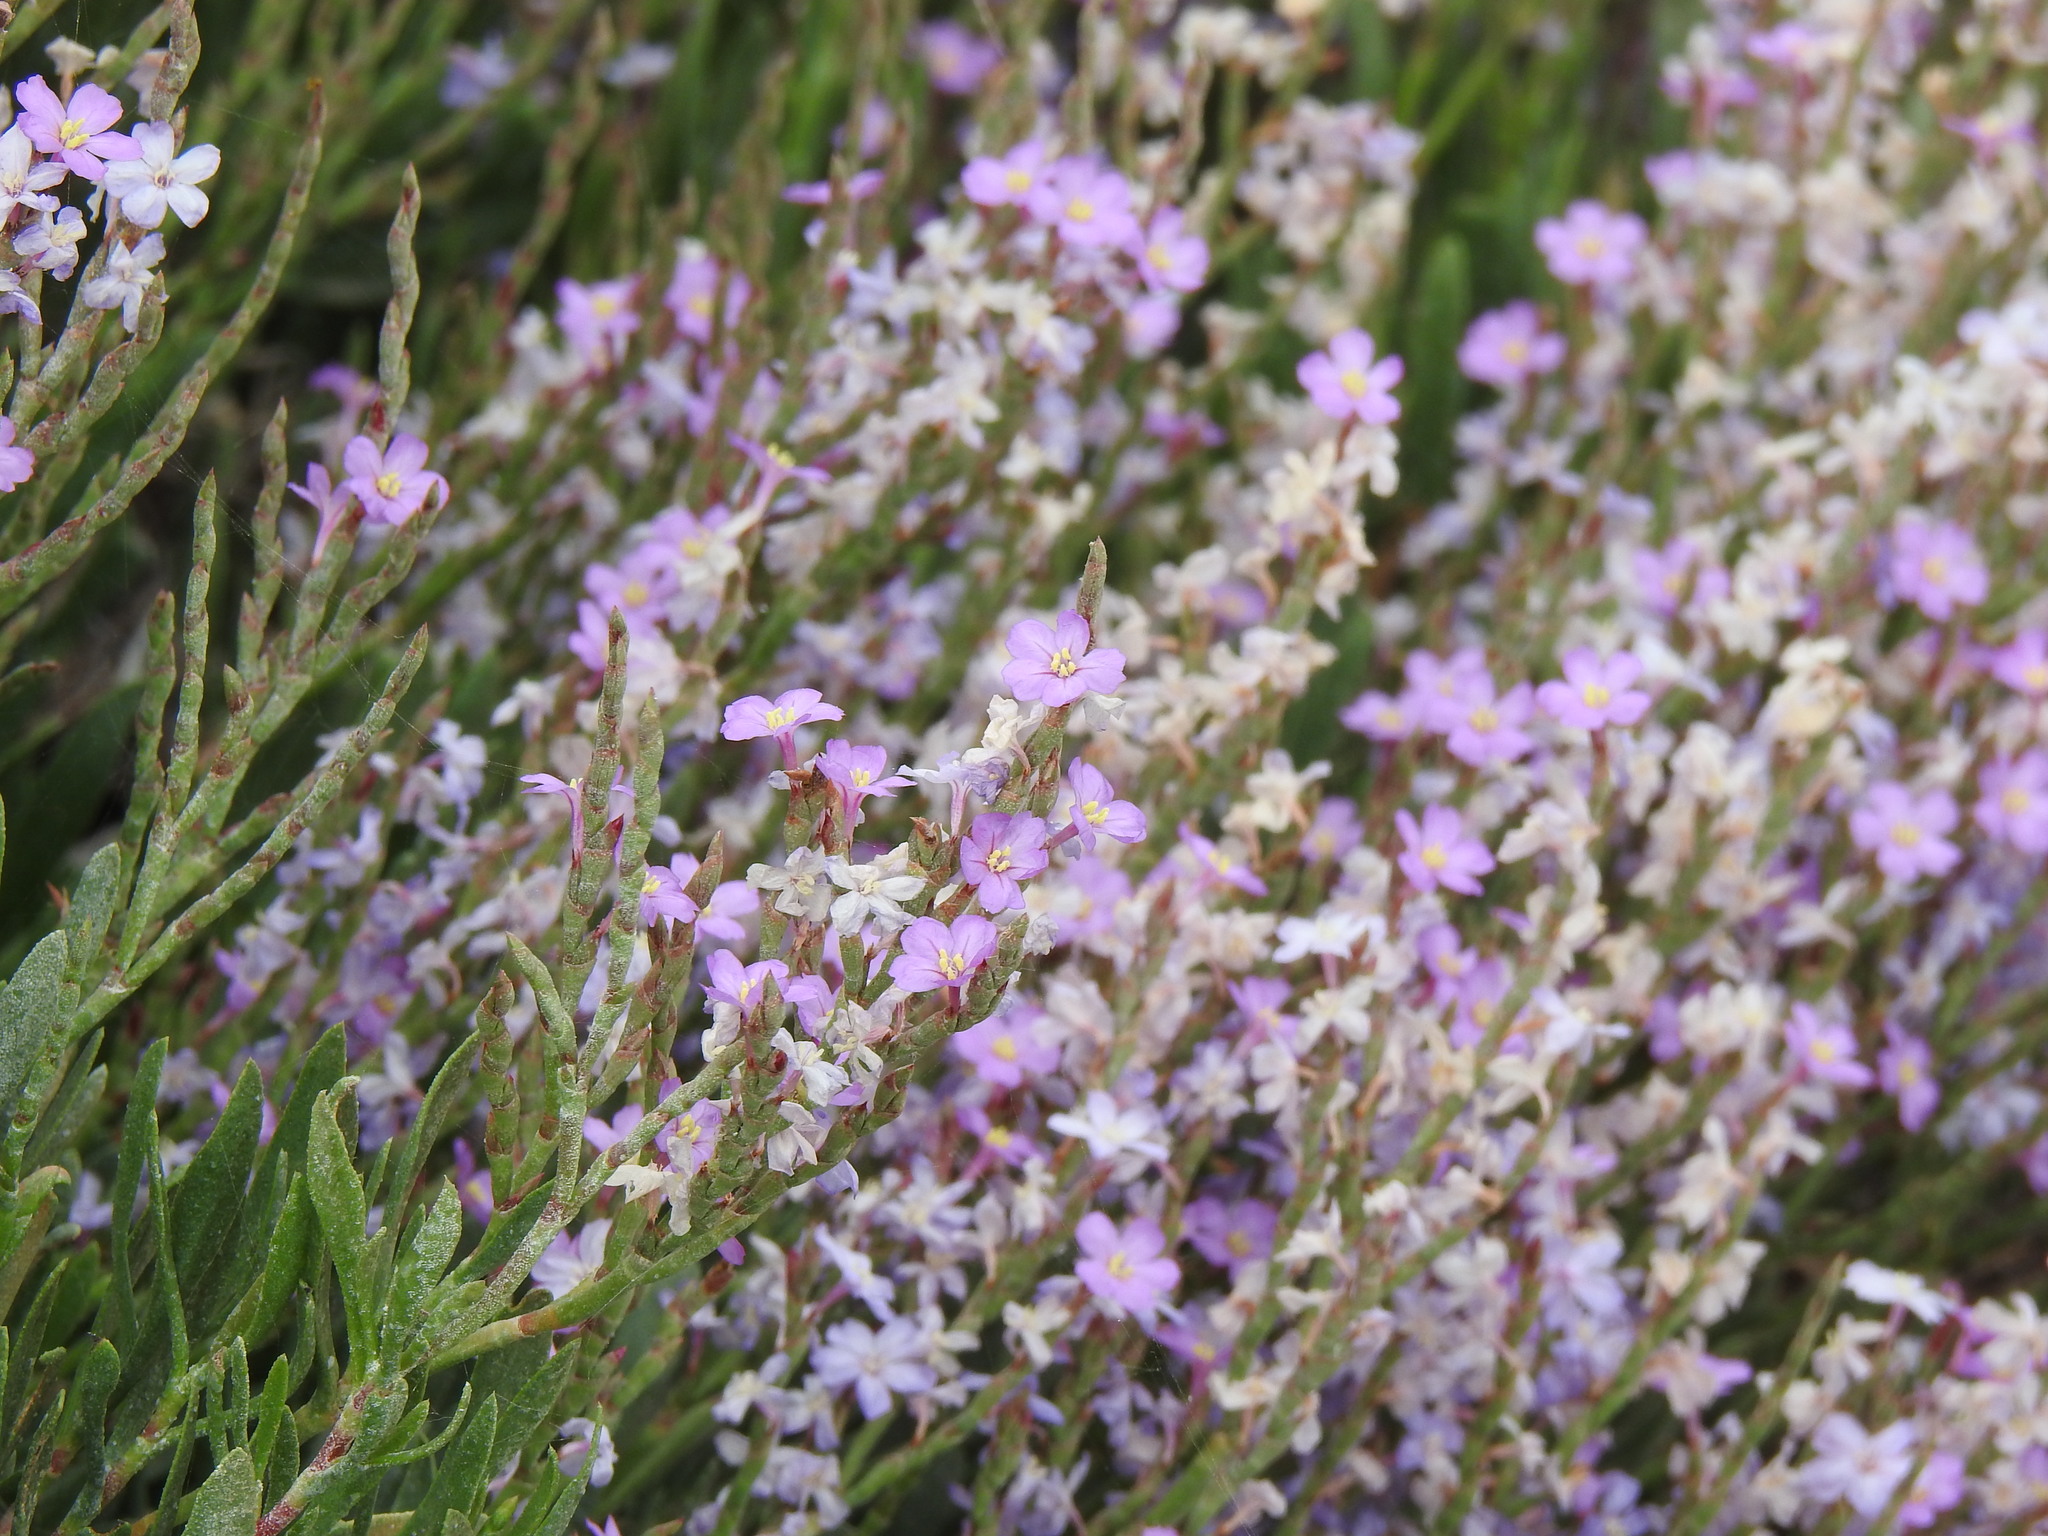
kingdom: Plantae
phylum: Tracheophyta
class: Magnoliopsida
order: Caryophyllales
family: Plumbaginaceae
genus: Limoniastrum
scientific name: Limoniastrum monopetalum
